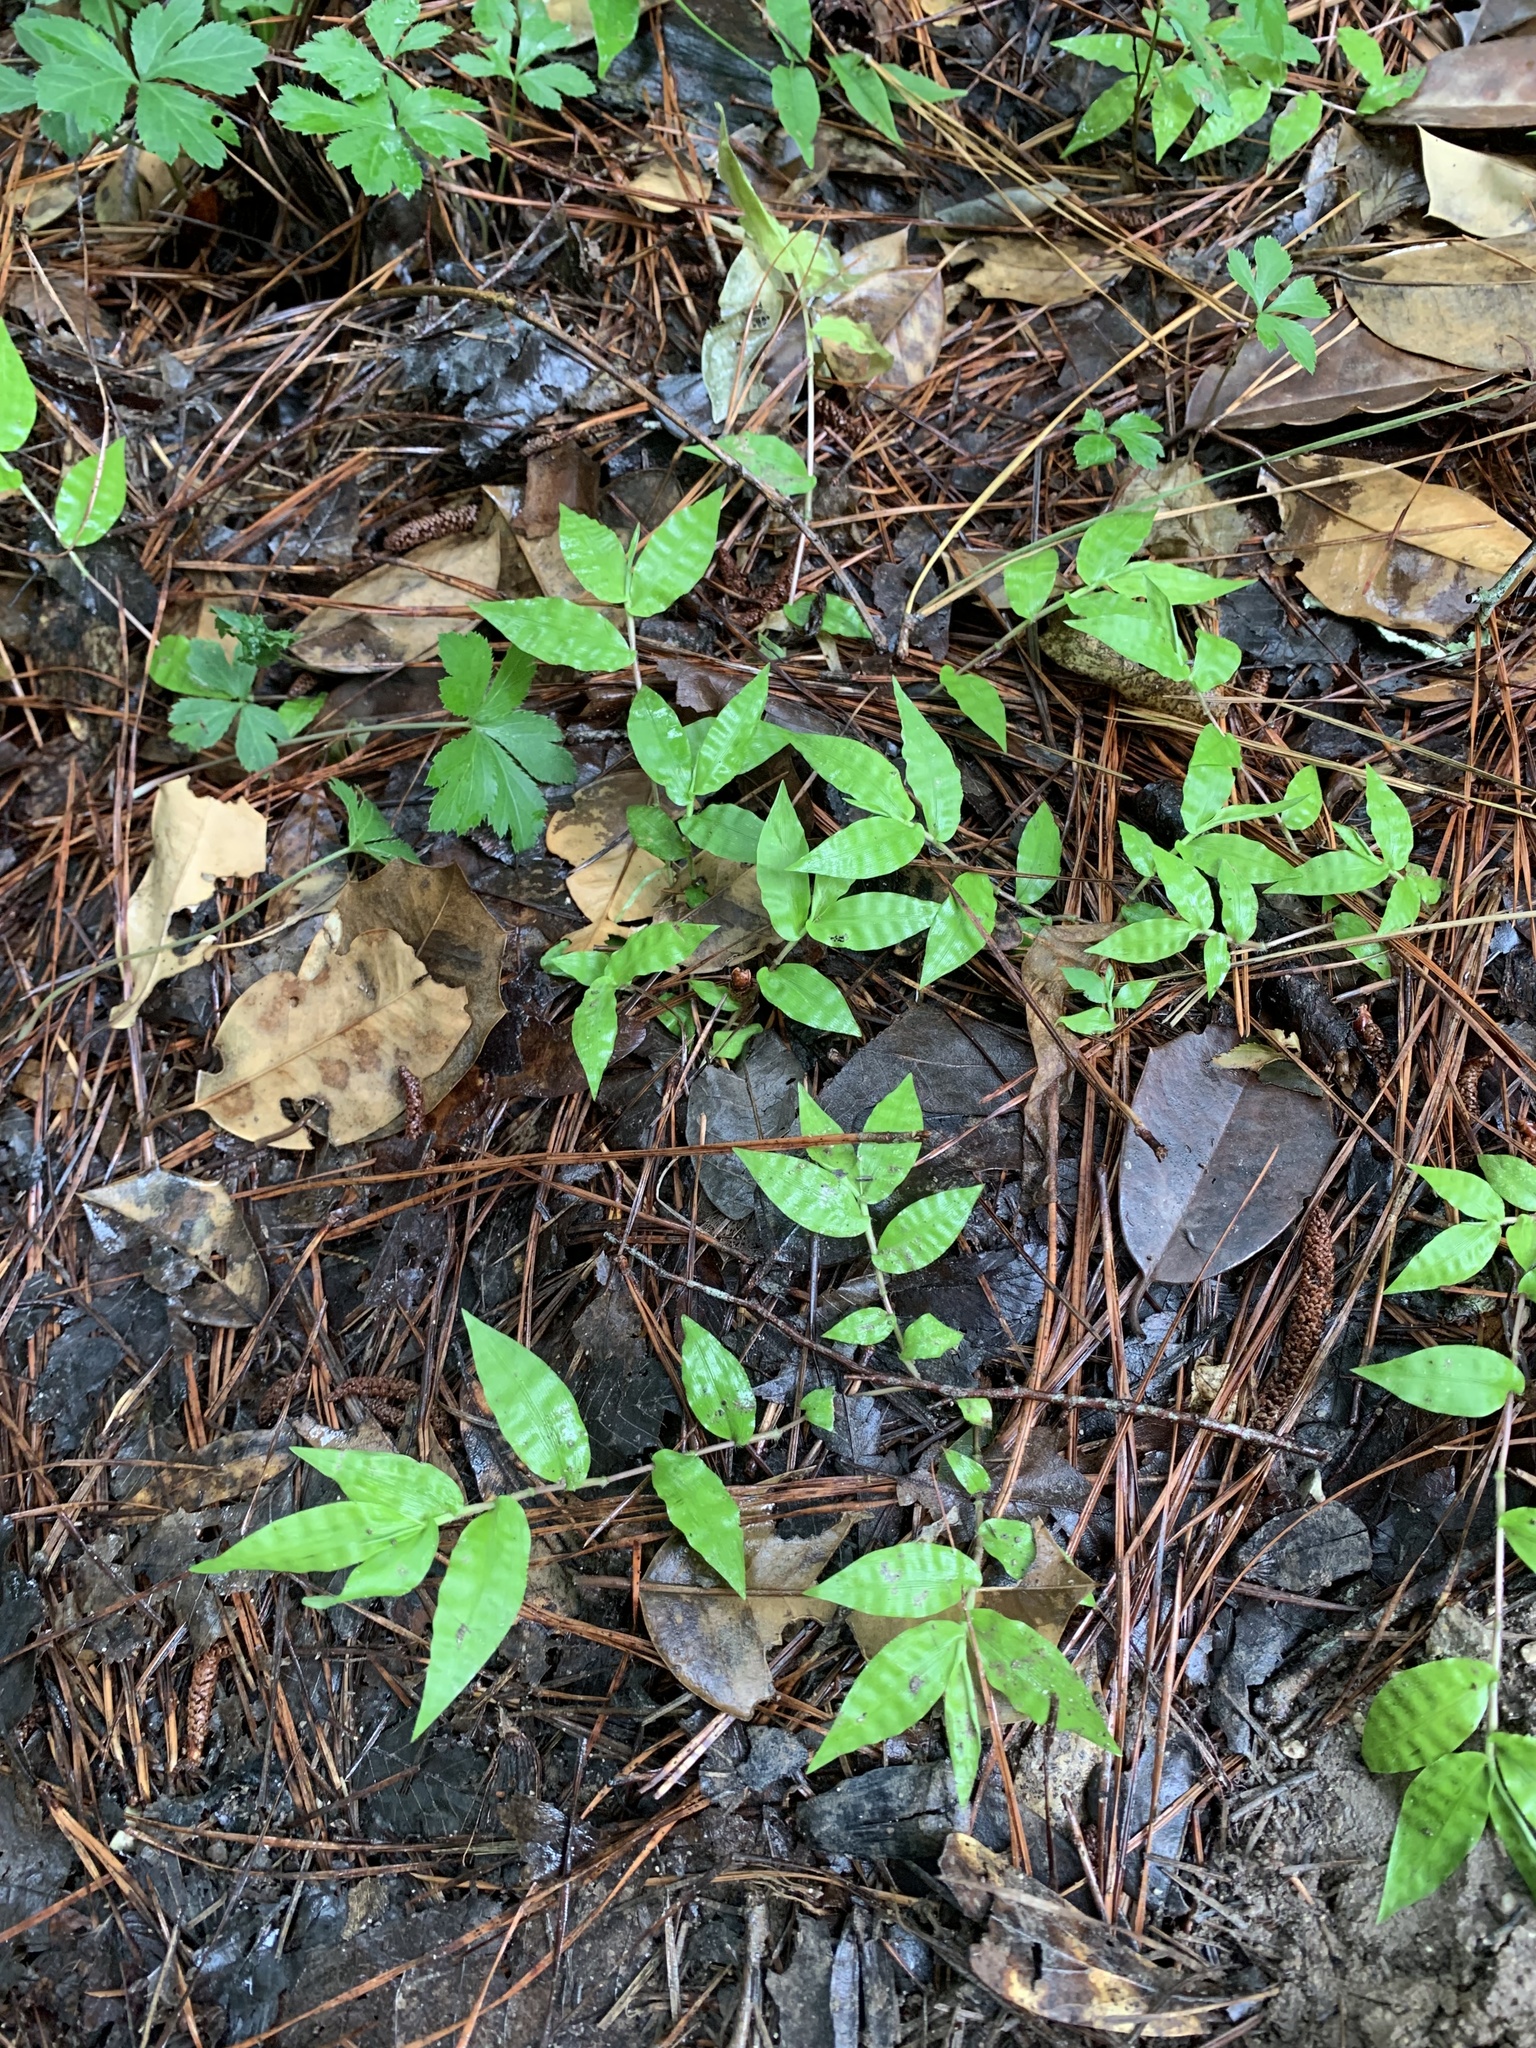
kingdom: Plantae
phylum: Tracheophyta
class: Liliopsida
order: Poales
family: Poaceae
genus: Oplismenus
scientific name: Oplismenus hirtellus
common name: Basketgrass
